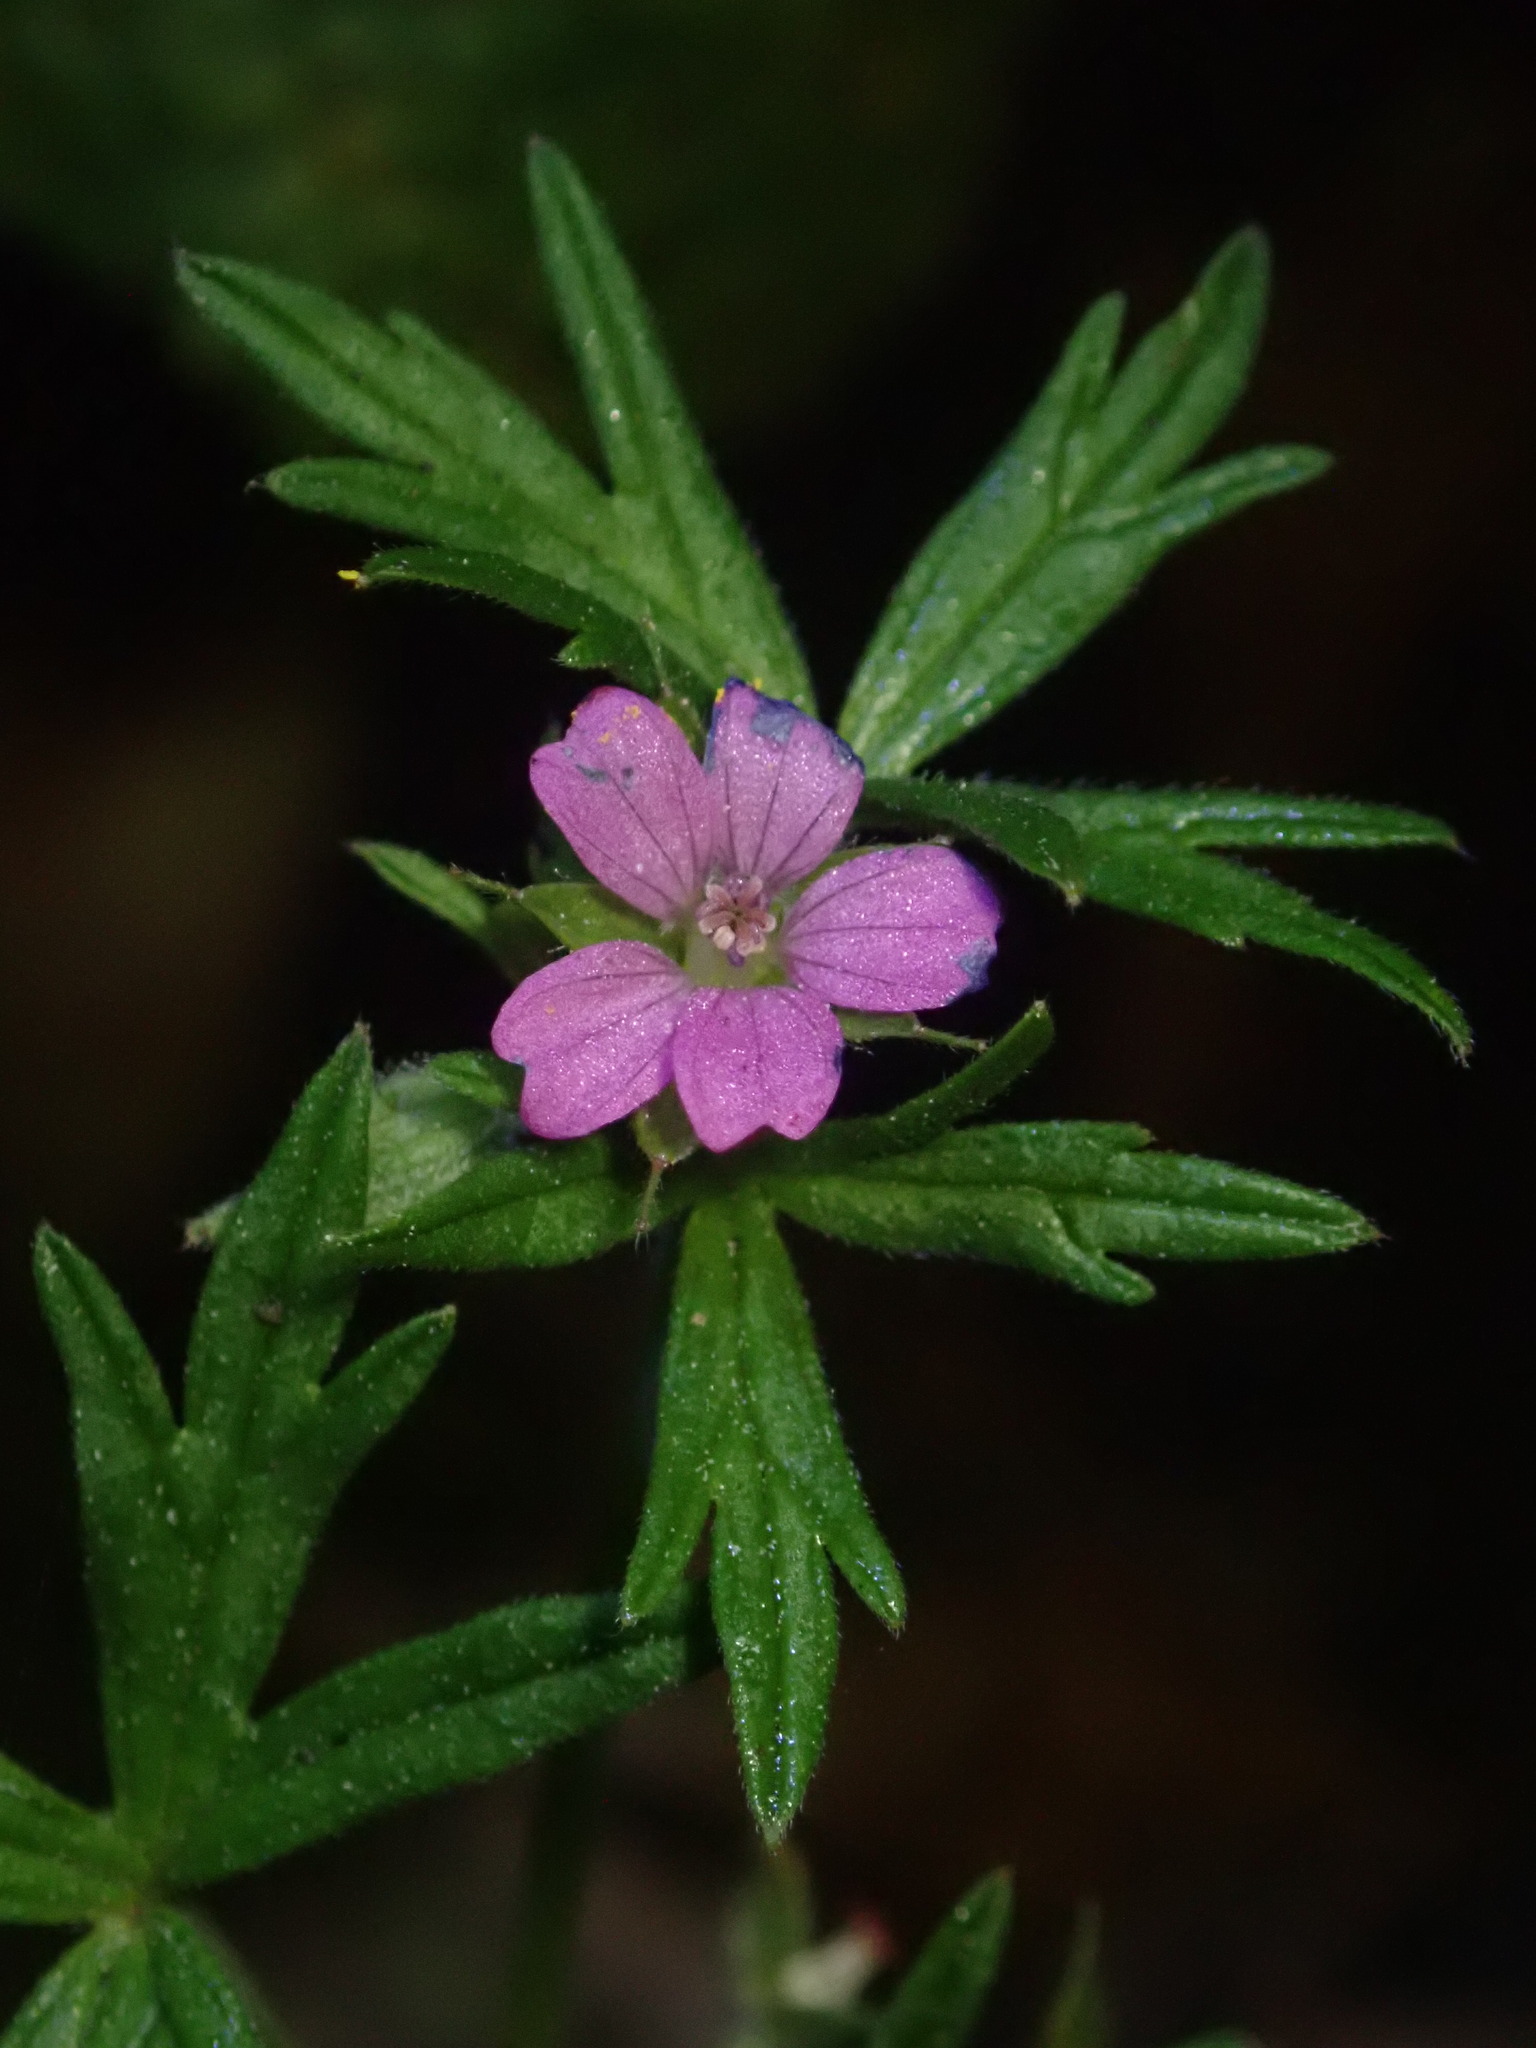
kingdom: Plantae
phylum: Tracheophyta
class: Magnoliopsida
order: Geraniales
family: Geraniaceae
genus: Geranium
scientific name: Geranium dissectum
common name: Cut-leaved crane's-bill
